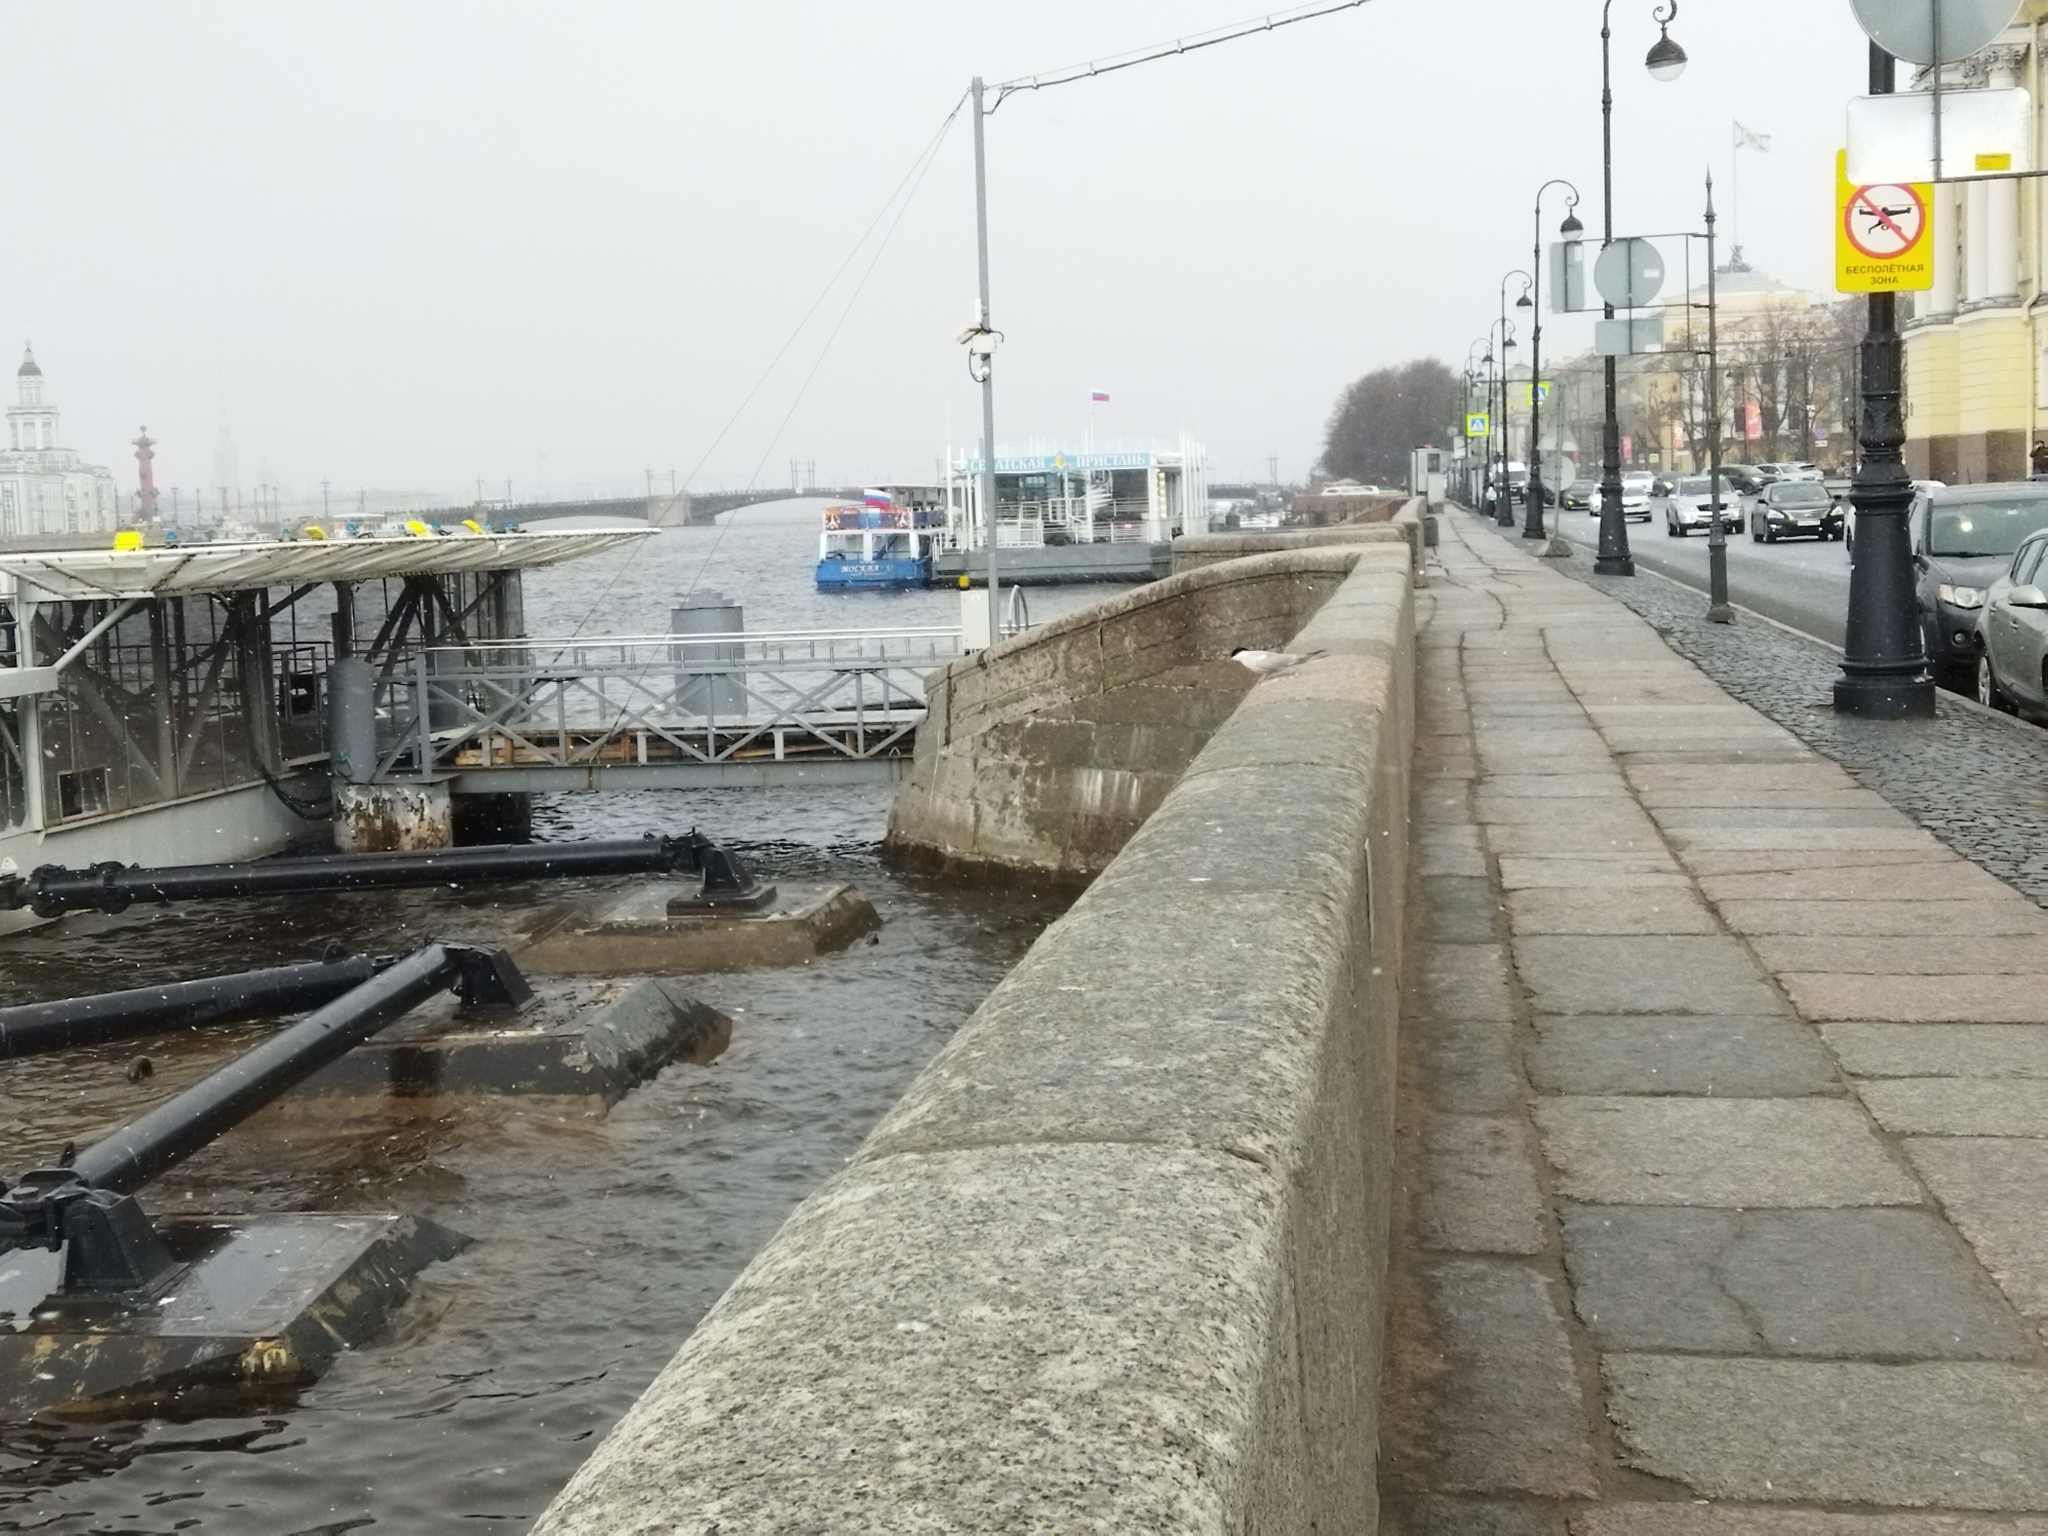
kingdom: Animalia
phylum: Chordata
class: Aves
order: Charadriiformes
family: Laridae
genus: Sterna
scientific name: Sterna hirundo
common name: Common tern
